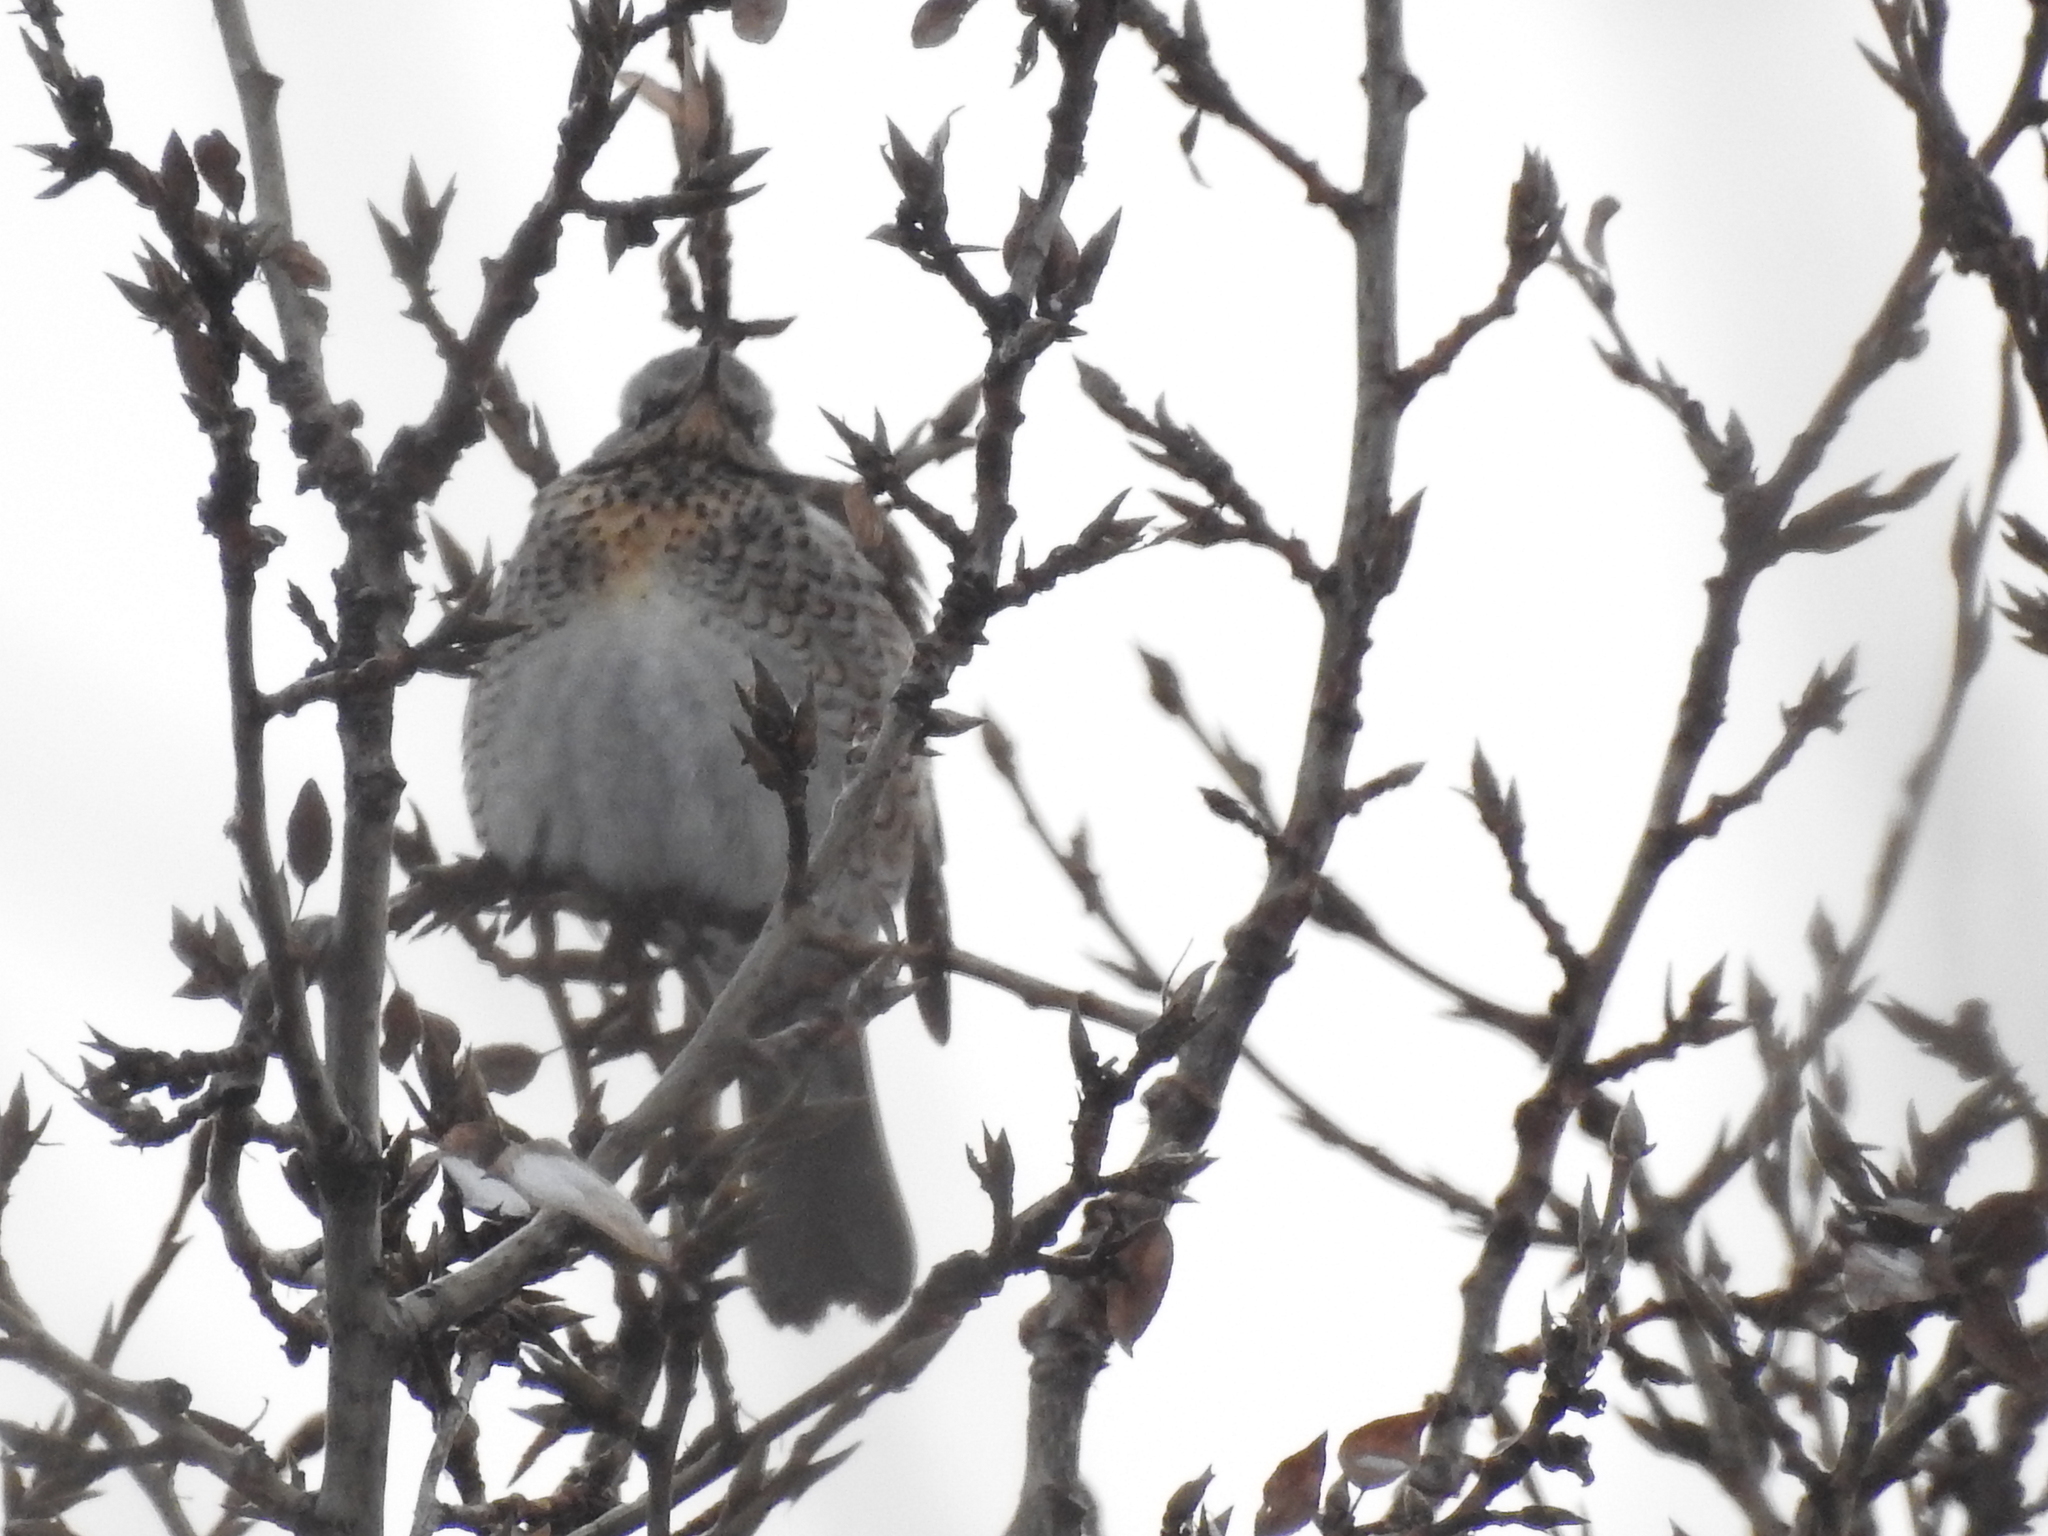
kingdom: Animalia
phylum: Chordata
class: Aves
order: Passeriformes
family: Turdidae
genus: Turdus
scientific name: Turdus pilaris
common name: Fieldfare
